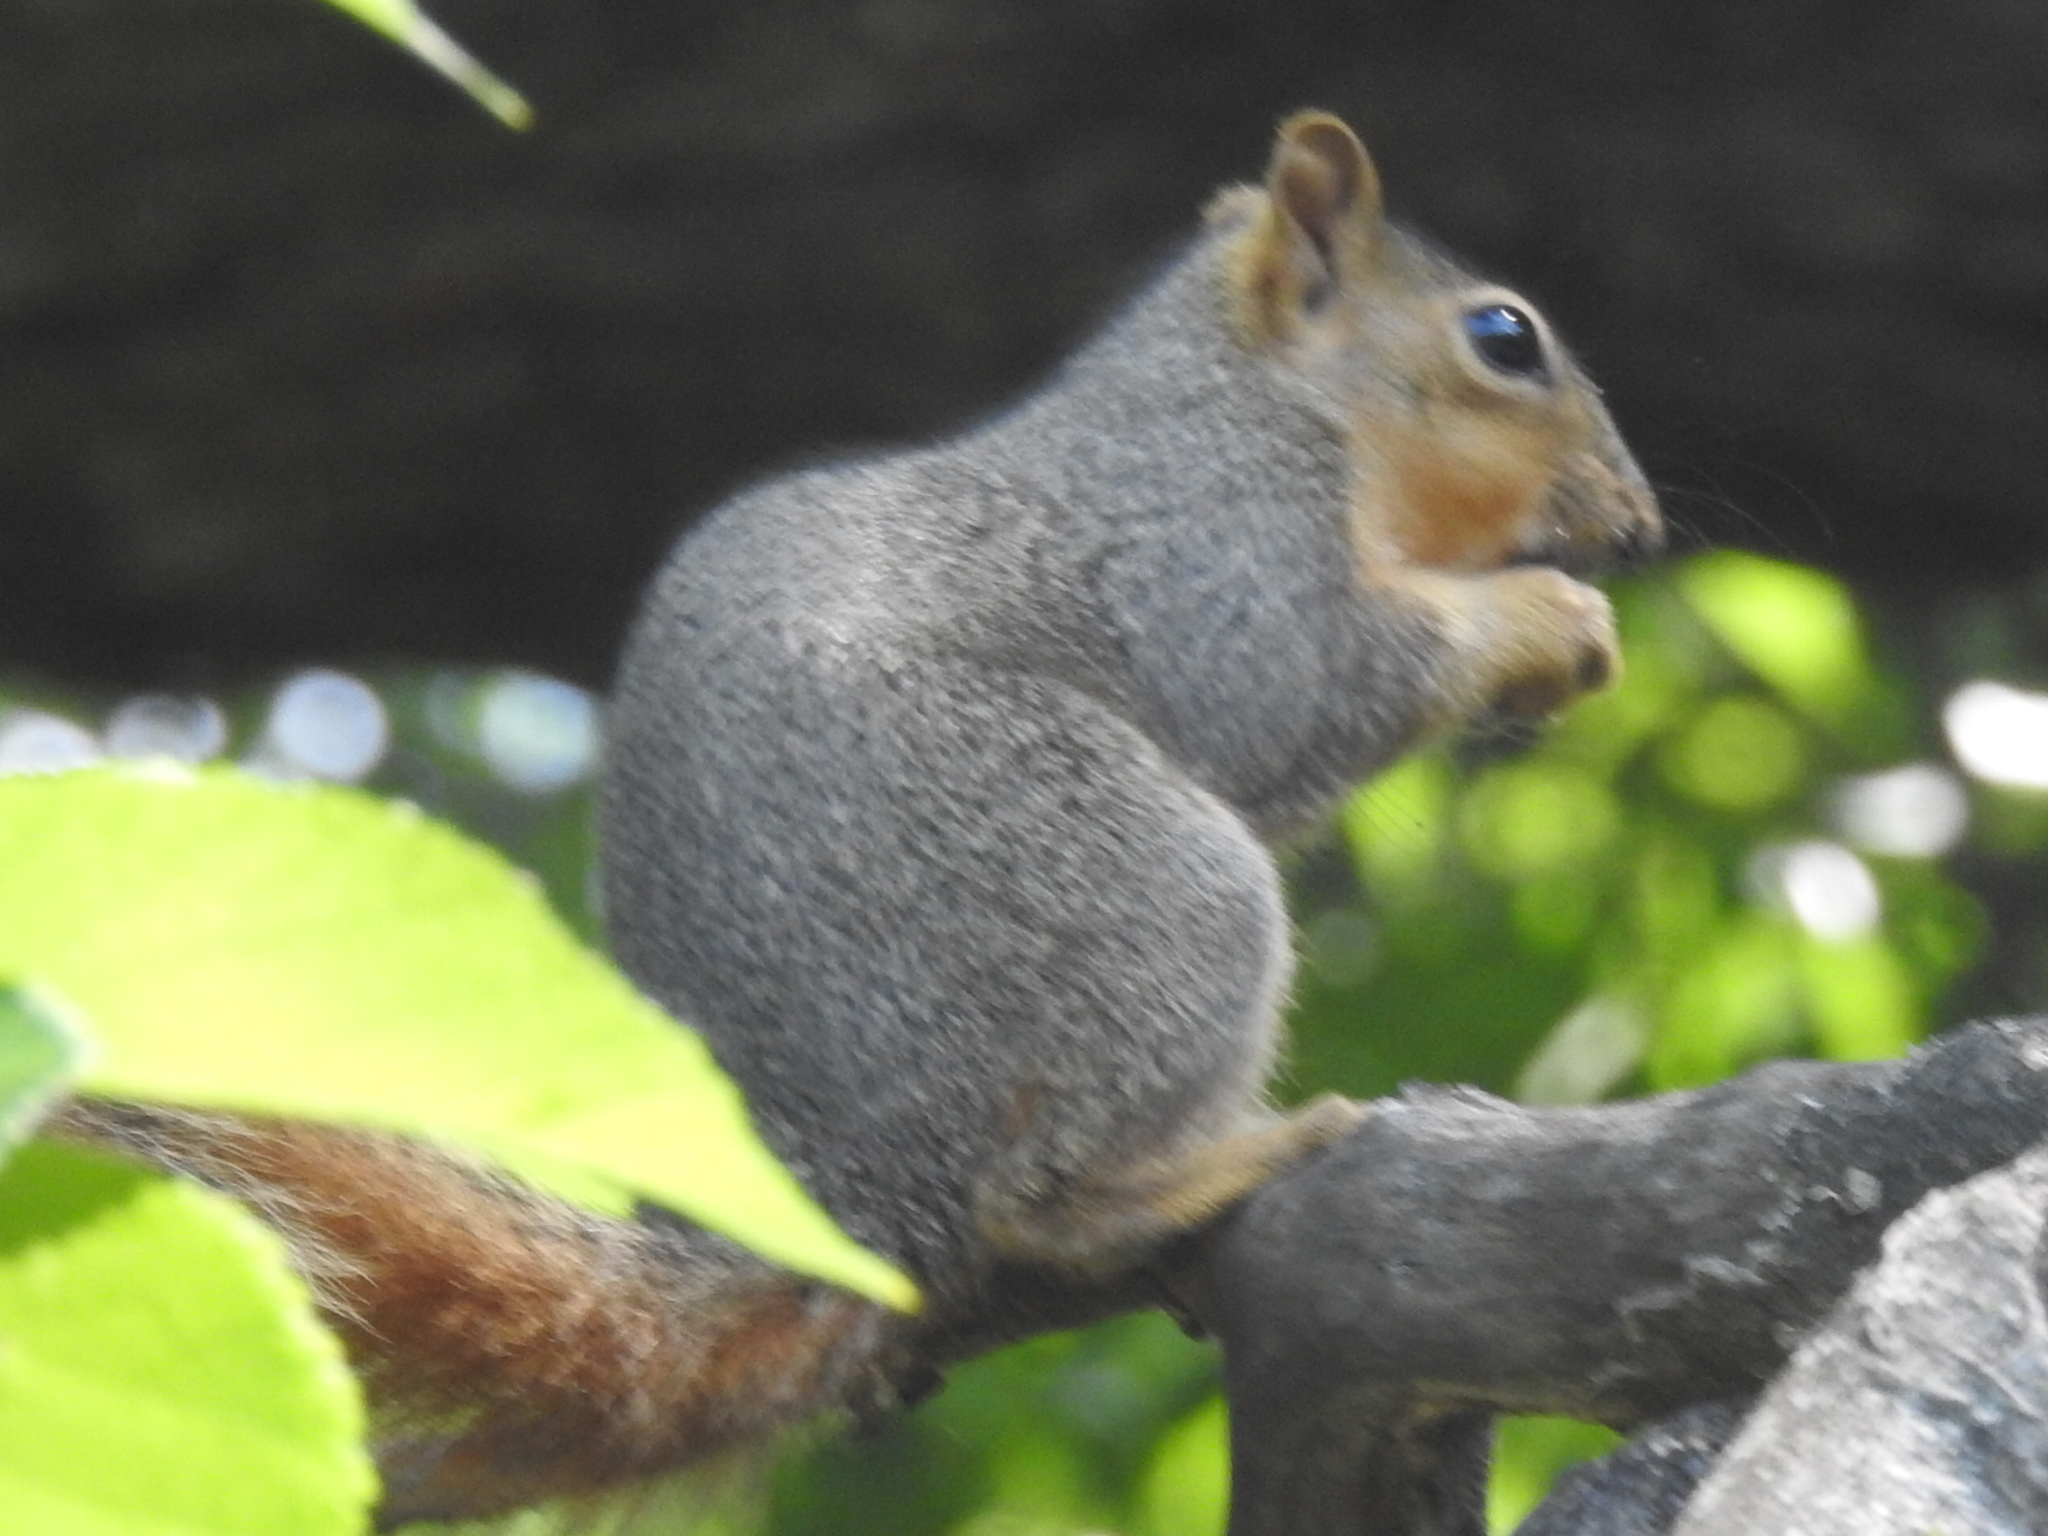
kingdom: Animalia
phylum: Chordata
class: Mammalia
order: Rodentia
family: Sciuridae
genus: Sciurus
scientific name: Sciurus niger
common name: Fox squirrel
